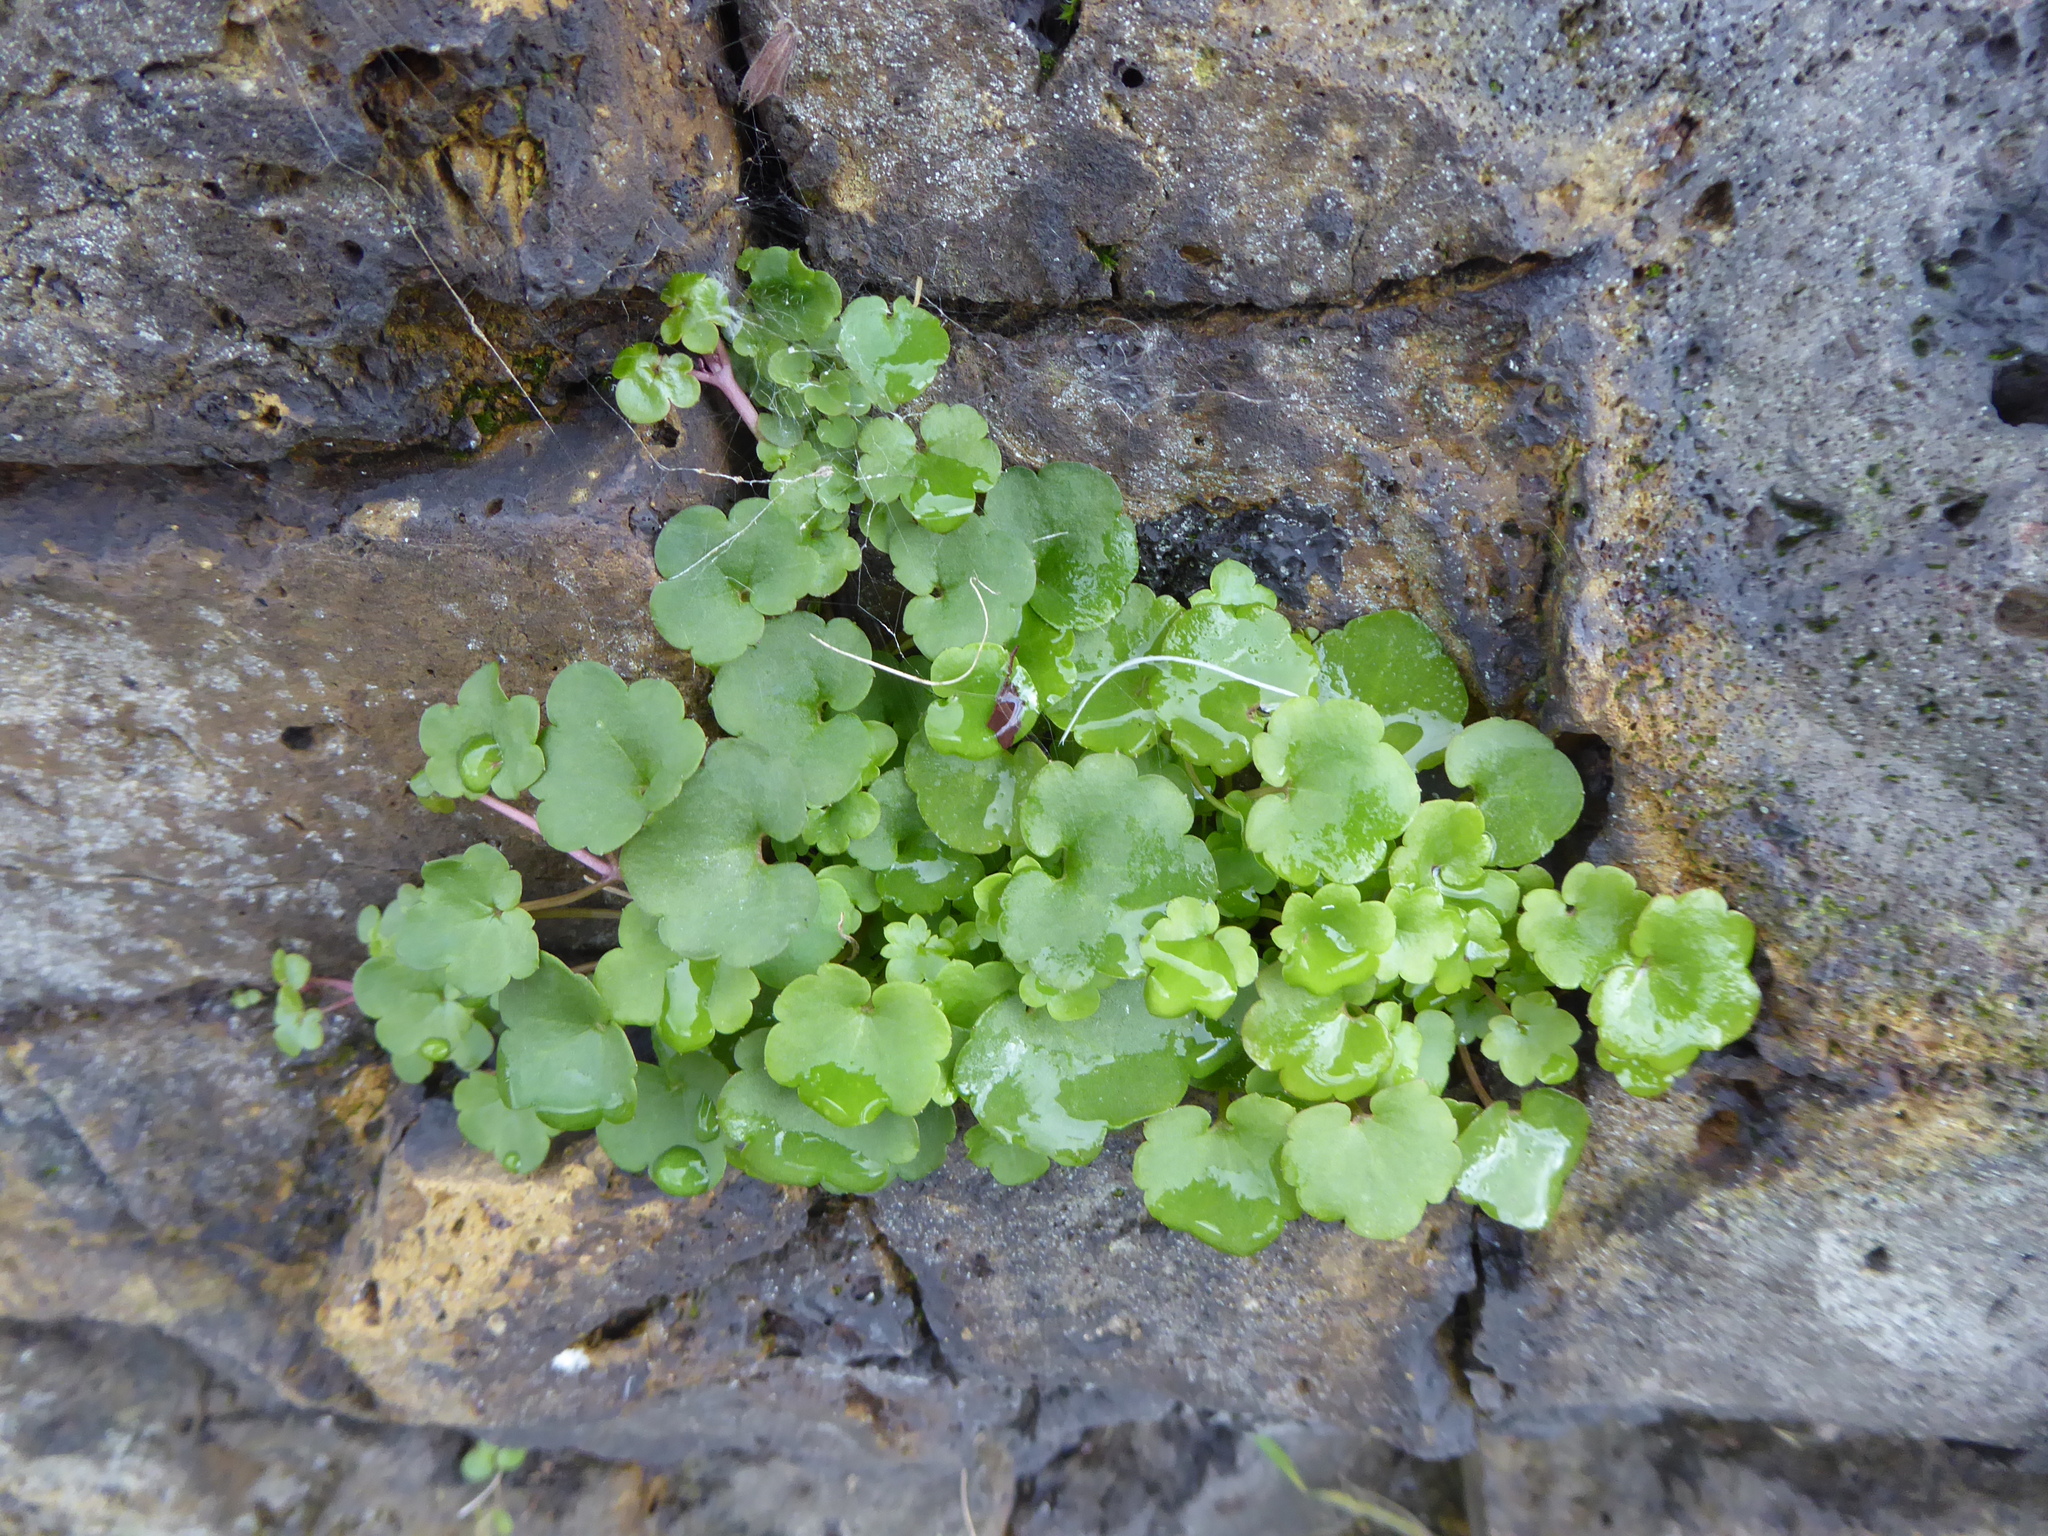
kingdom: Plantae
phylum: Tracheophyta
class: Magnoliopsida
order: Lamiales
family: Plantaginaceae
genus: Cymbalaria
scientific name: Cymbalaria muralis
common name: Ivy-leaved toadflax
